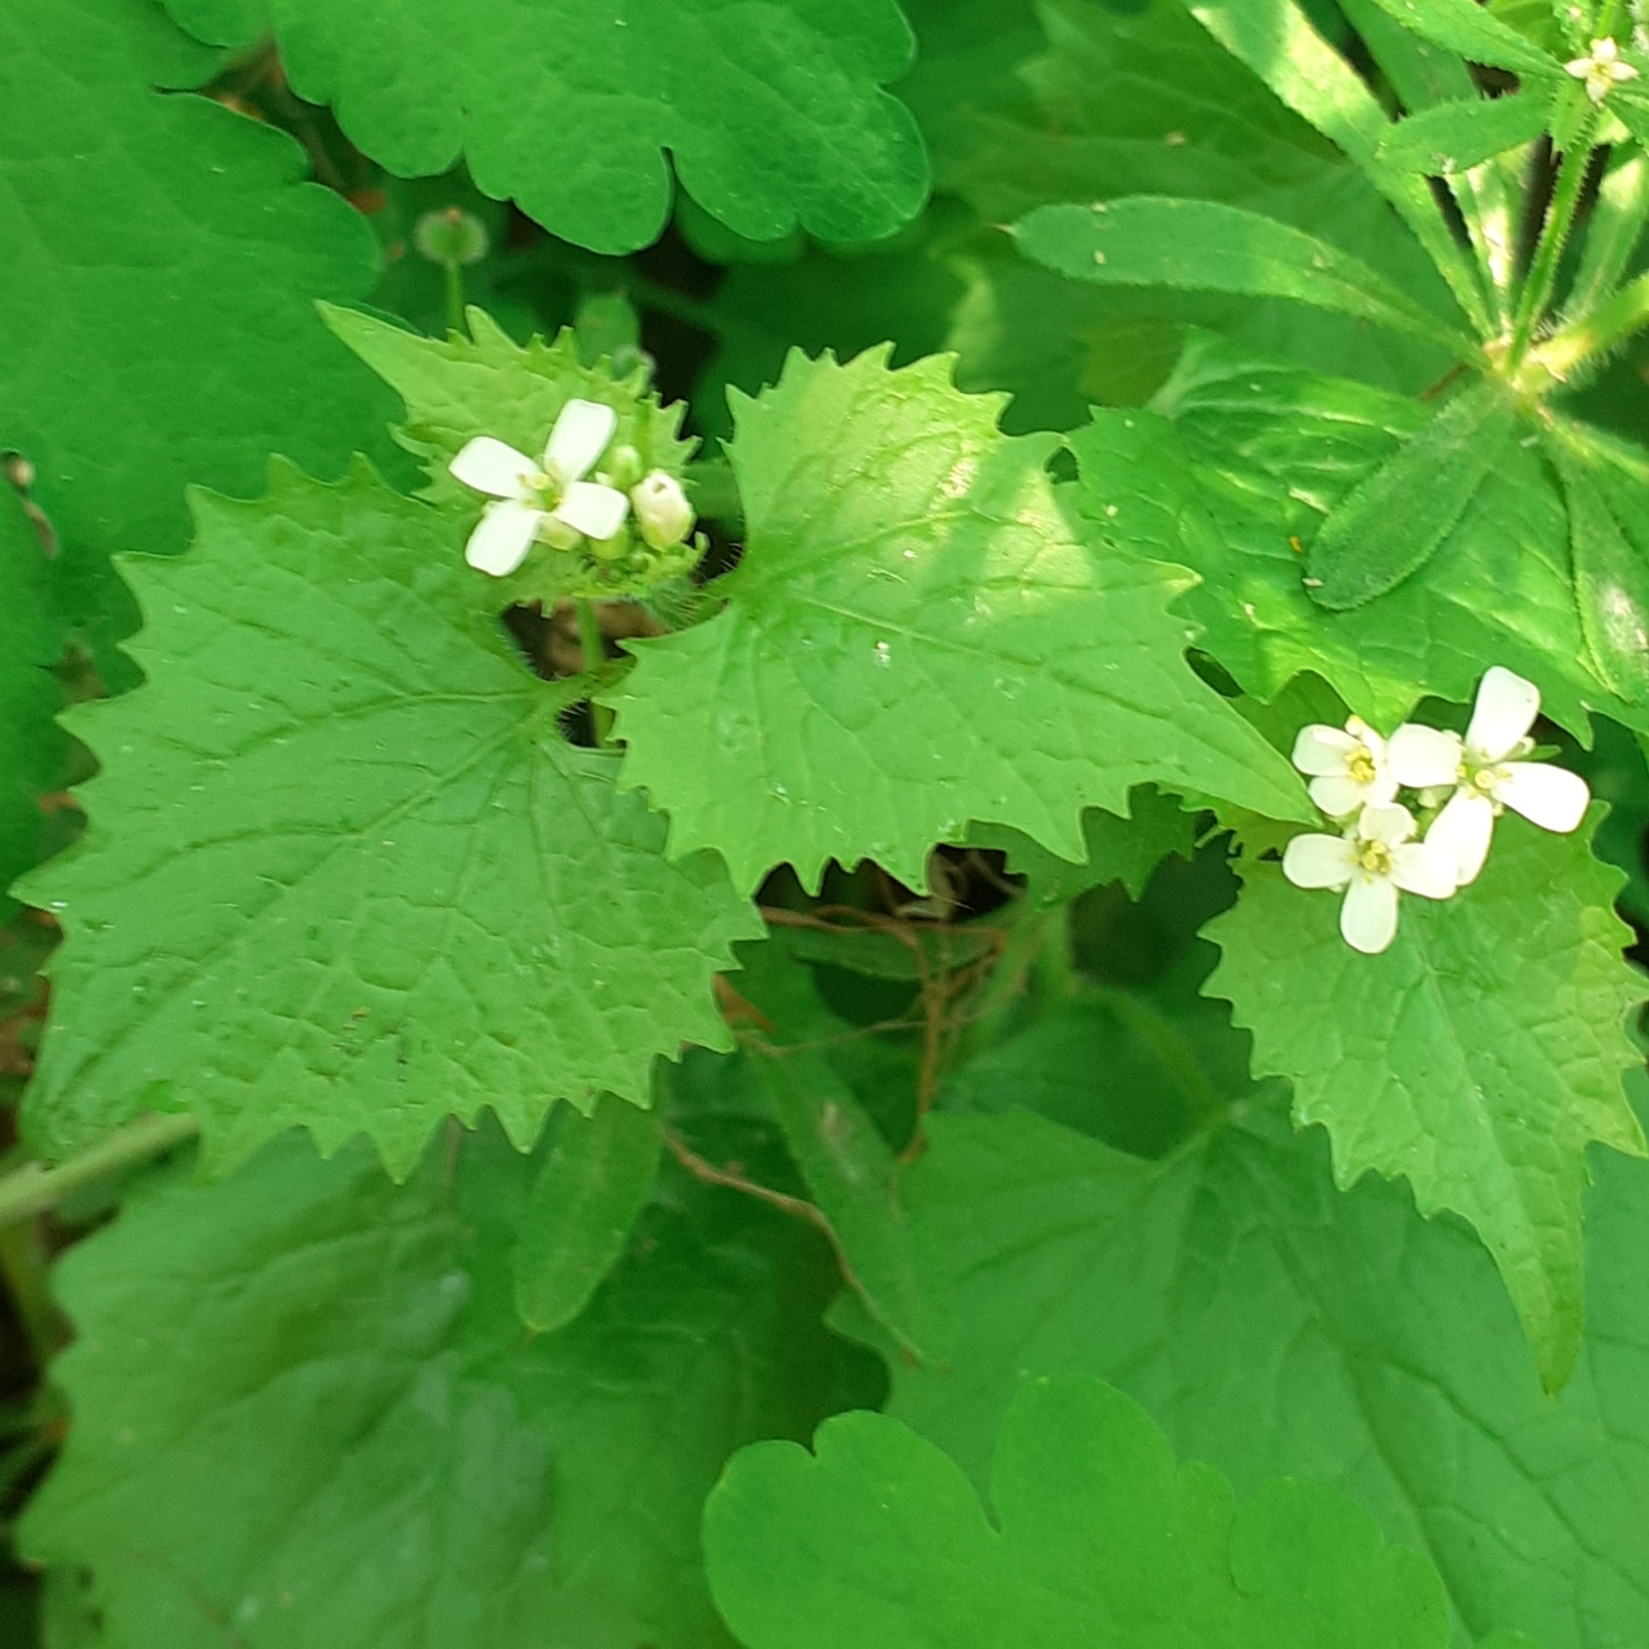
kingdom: Plantae
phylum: Tracheophyta
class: Magnoliopsida
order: Brassicales
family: Brassicaceae
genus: Alliaria
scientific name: Alliaria petiolata
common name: Garlic mustard
